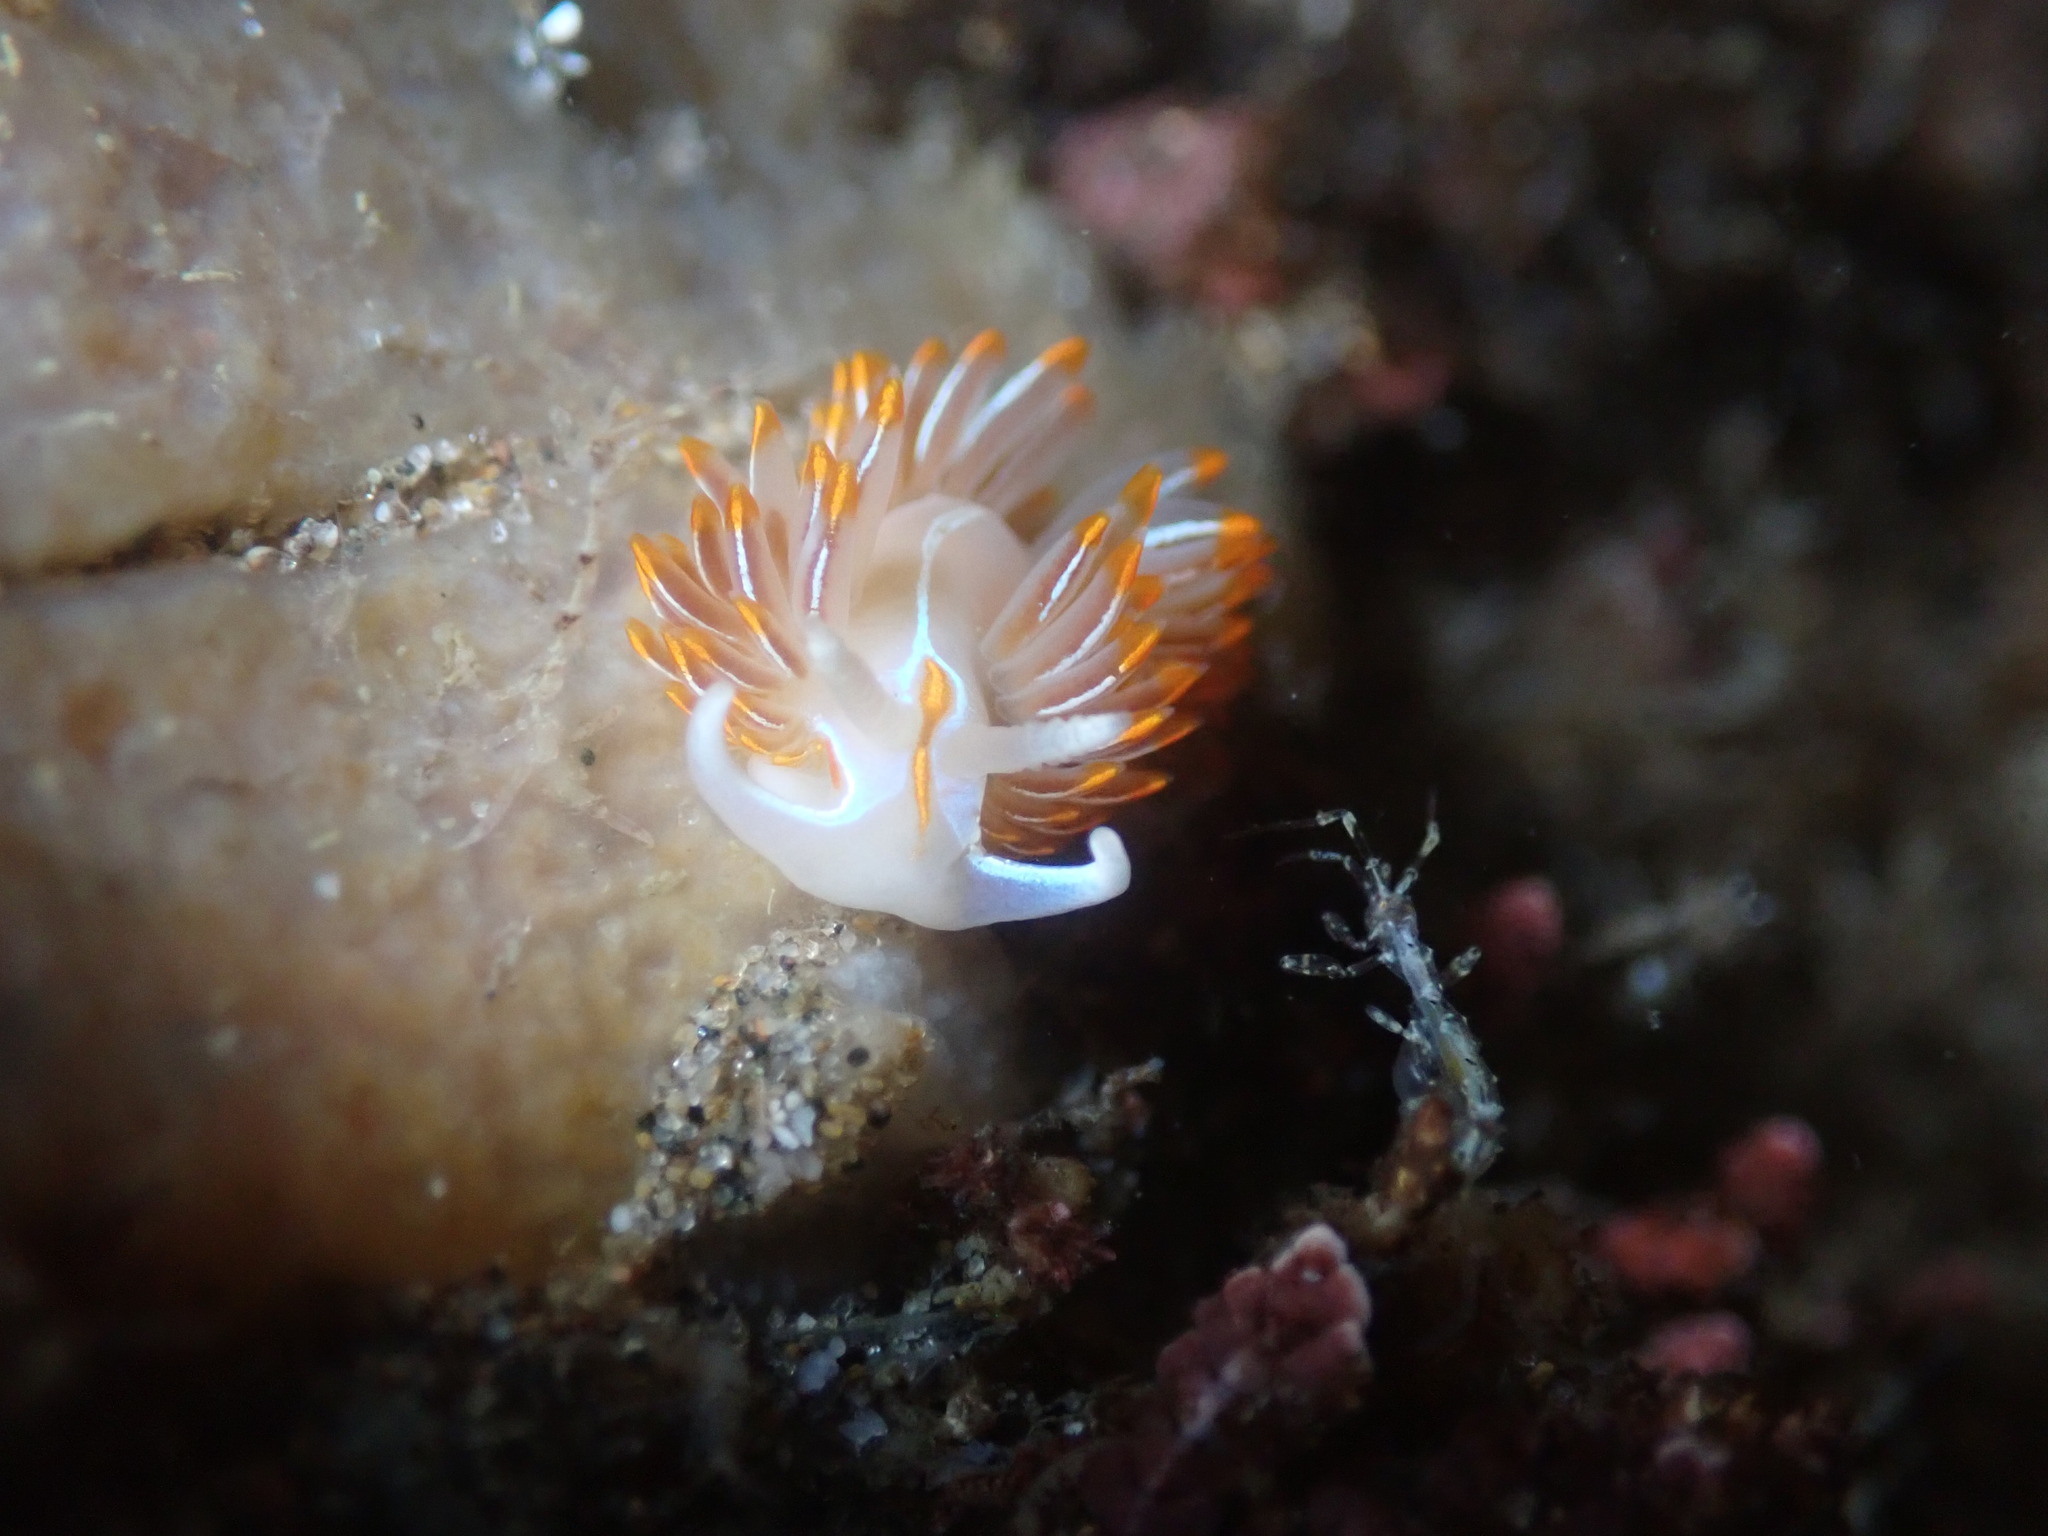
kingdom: Animalia
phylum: Mollusca
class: Gastropoda
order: Nudibranchia
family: Myrrhinidae
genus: Hermissenda
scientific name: Hermissenda crassicornis
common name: Hermissenda
